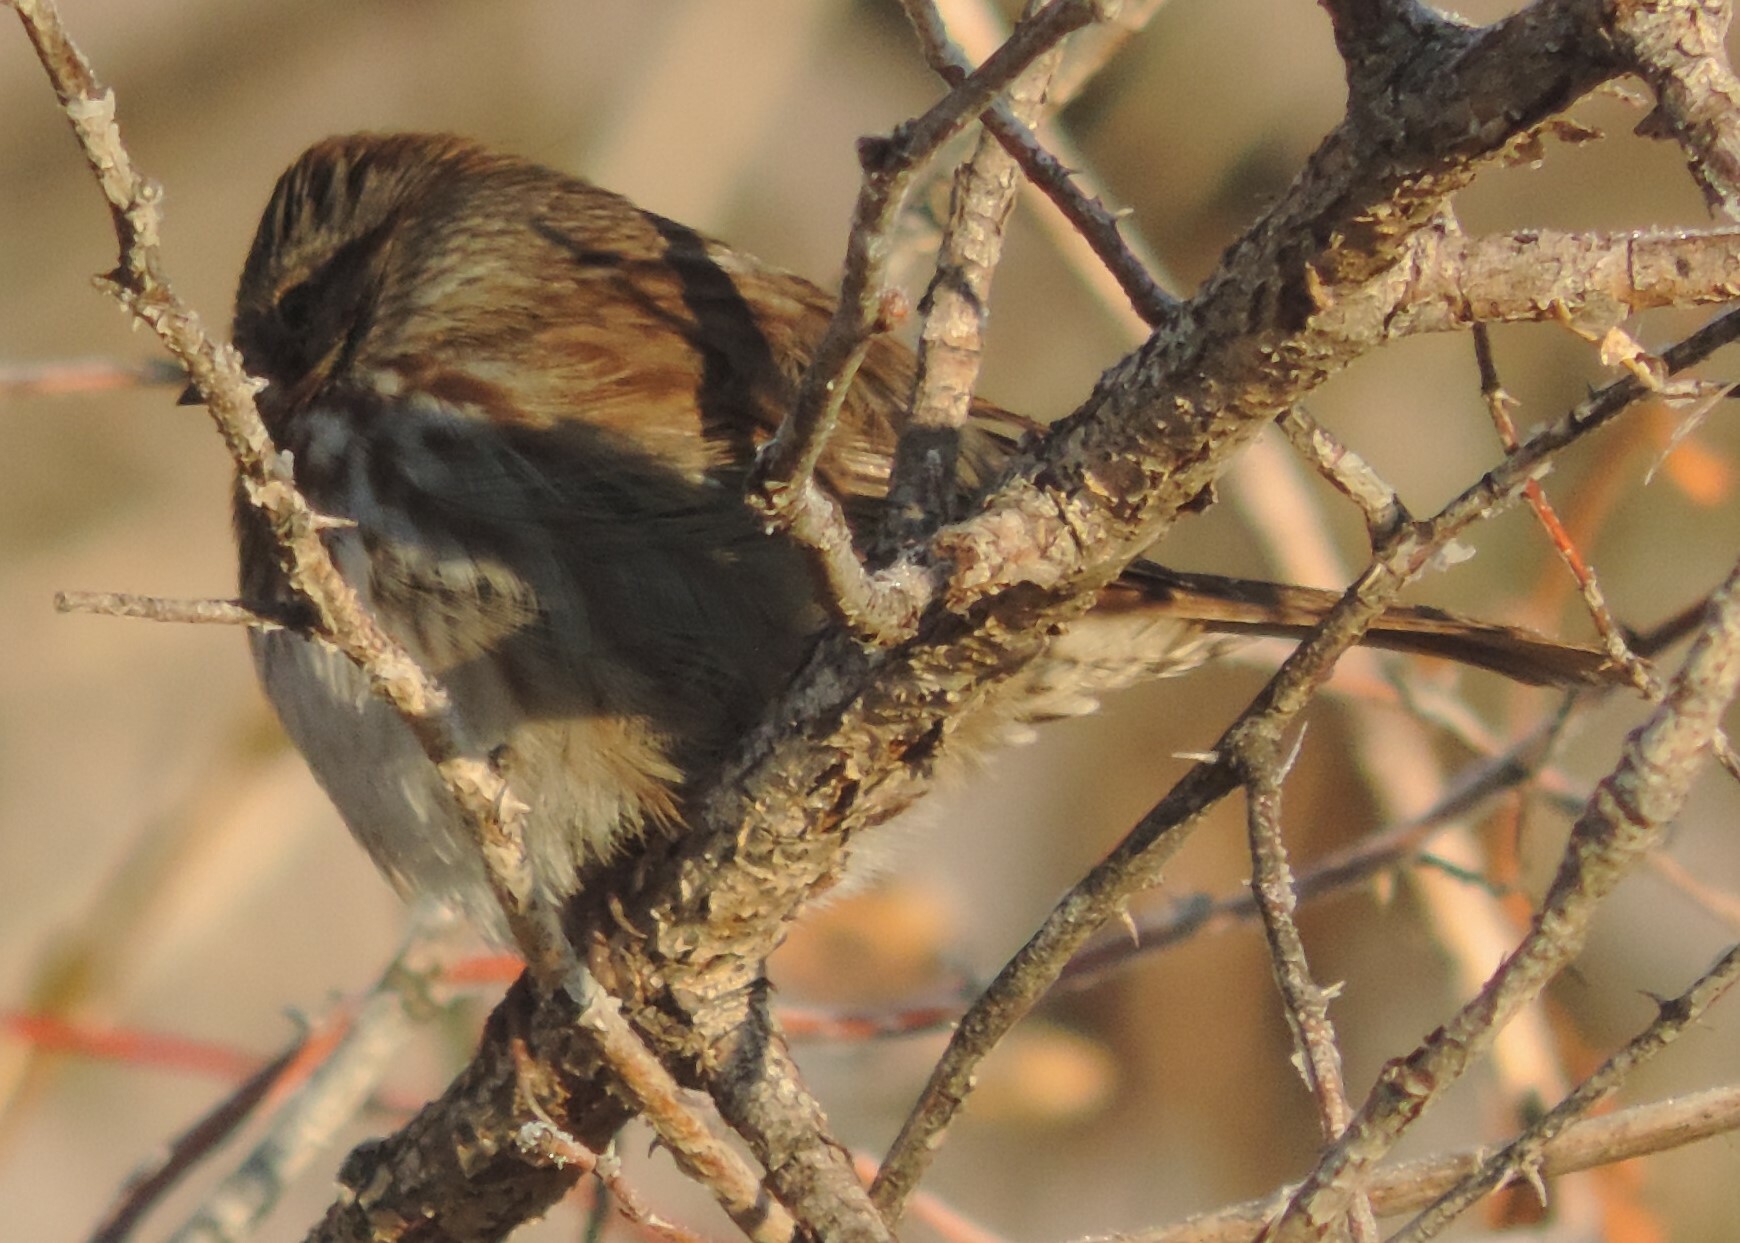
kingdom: Animalia
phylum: Chordata
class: Aves
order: Passeriformes
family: Passerellidae
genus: Melospiza
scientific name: Melospiza melodia
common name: Song sparrow
